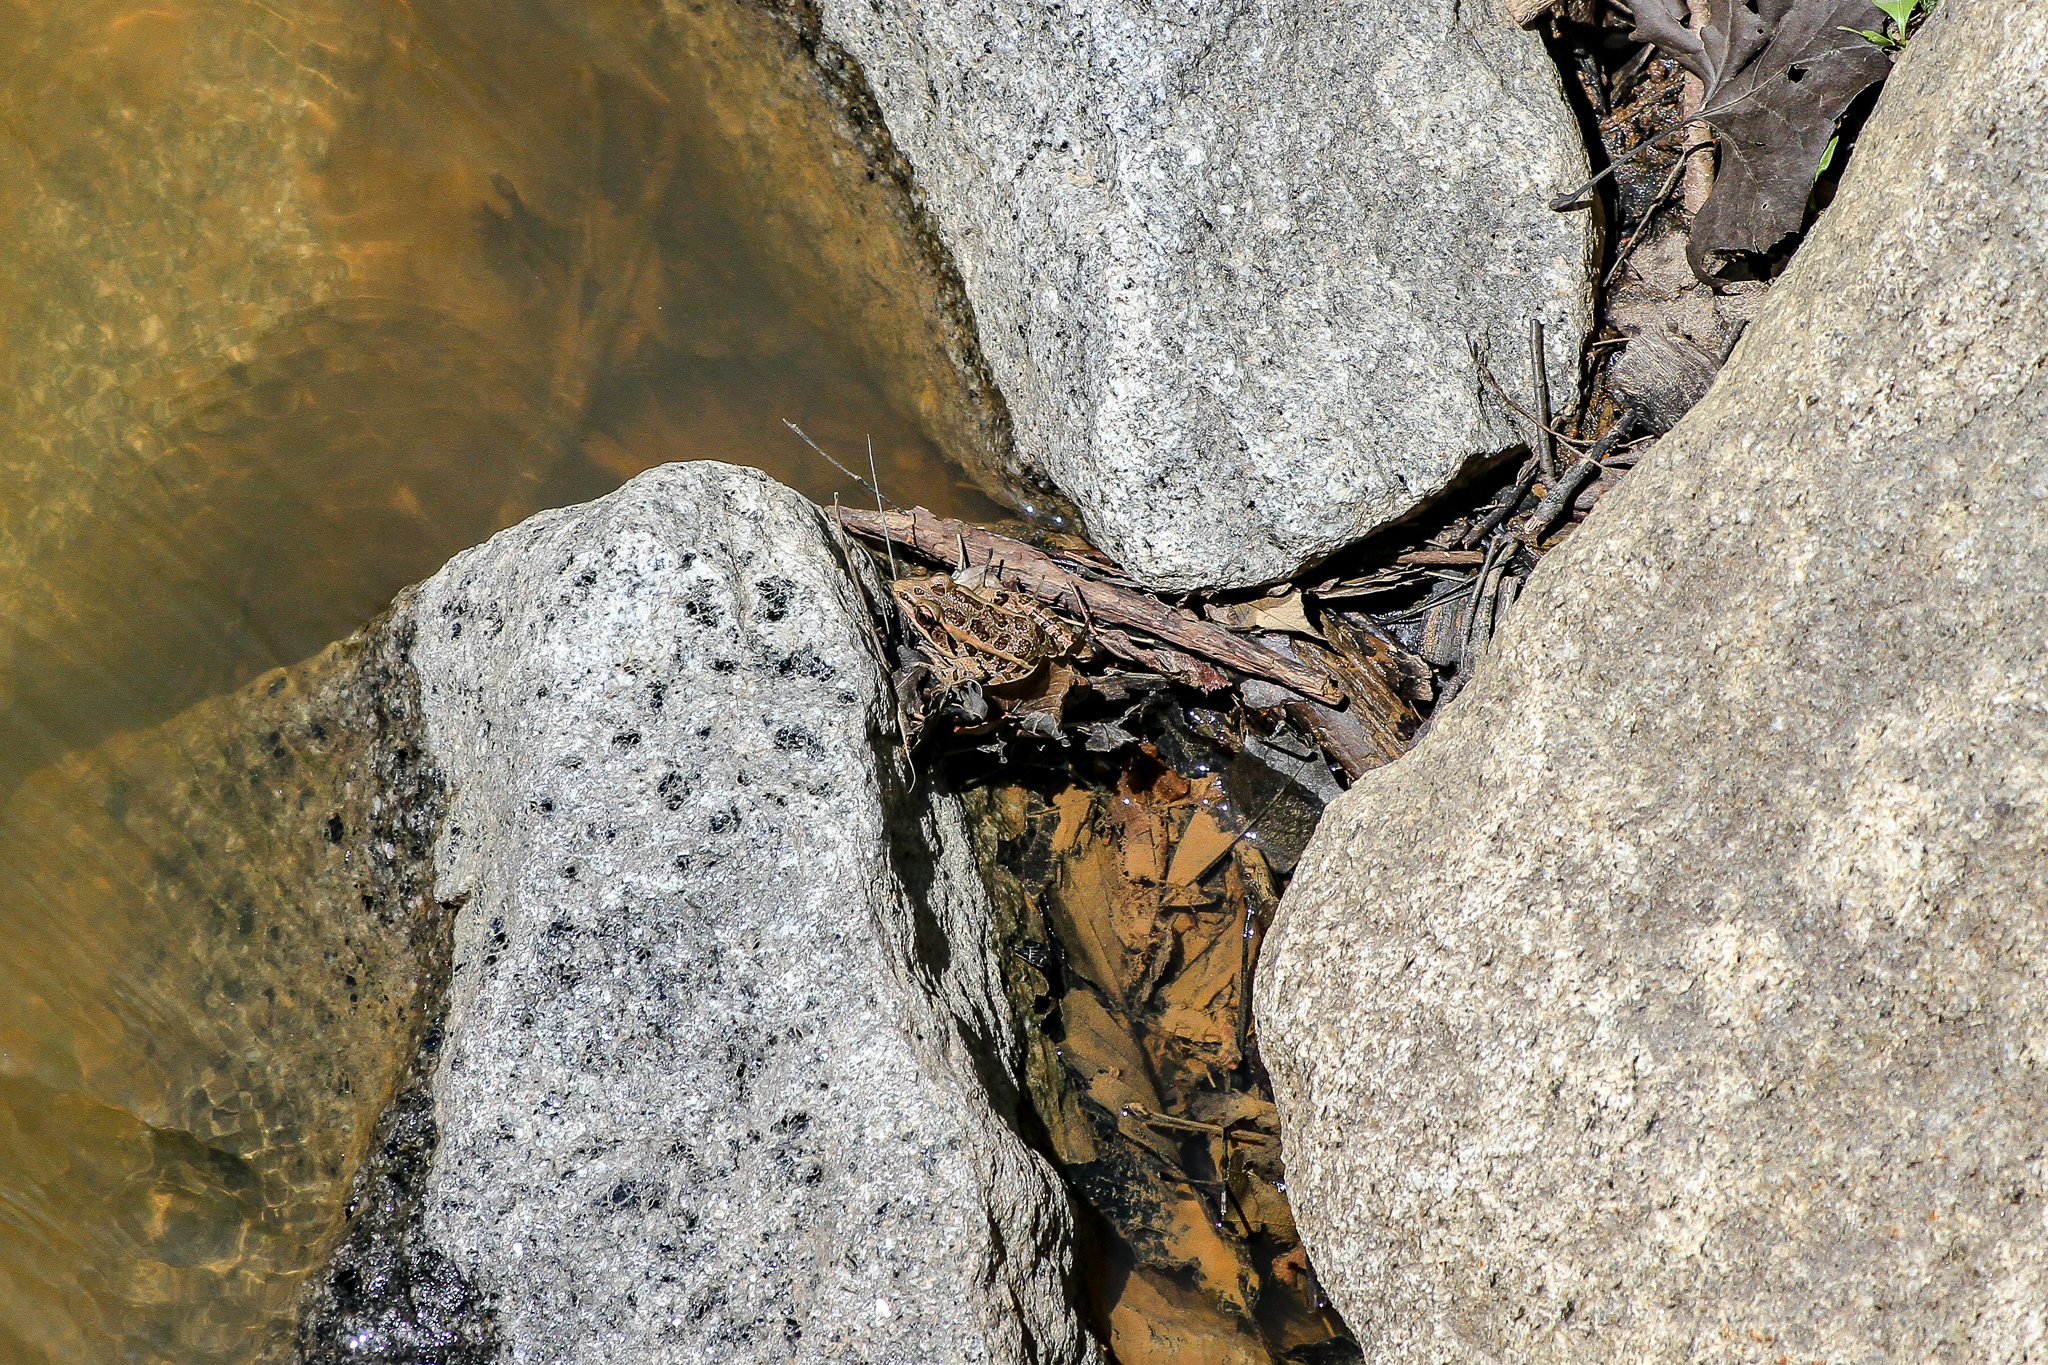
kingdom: Animalia
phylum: Chordata
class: Amphibia
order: Anura
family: Ranidae
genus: Lithobates
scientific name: Lithobates palustris
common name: Pickerel frog
